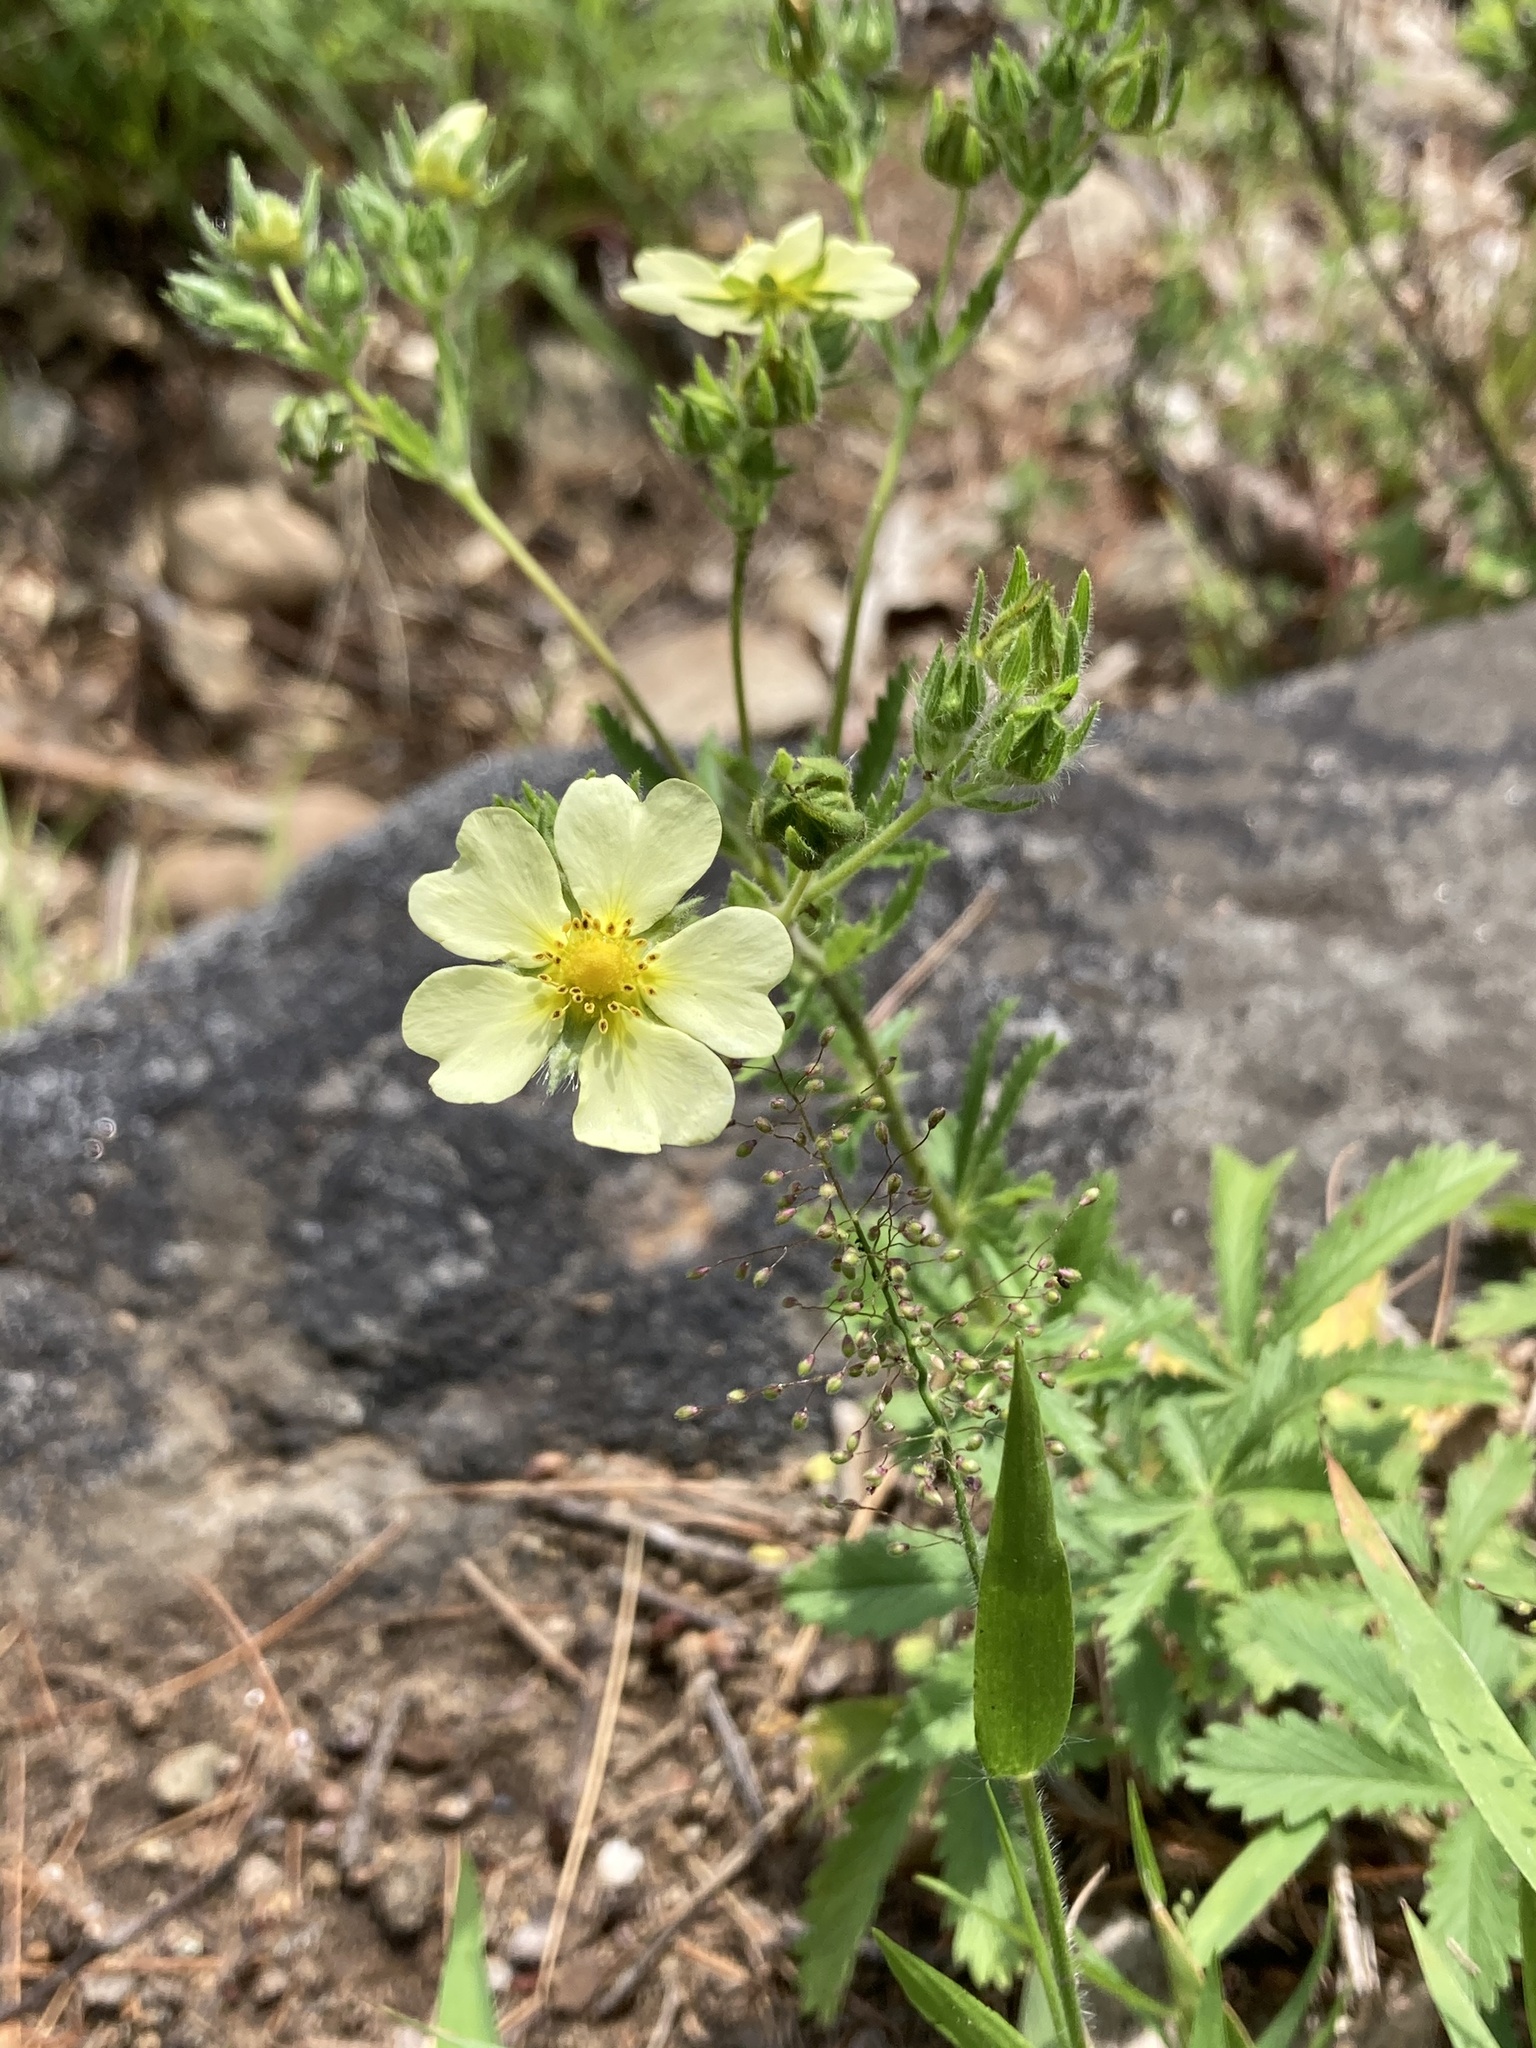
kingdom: Plantae
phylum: Tracheophyta
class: Magnoliopsida
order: Rosales
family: Rosaceae
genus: Potentilla
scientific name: Potentilla recta
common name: Sulphur cinquefoil
